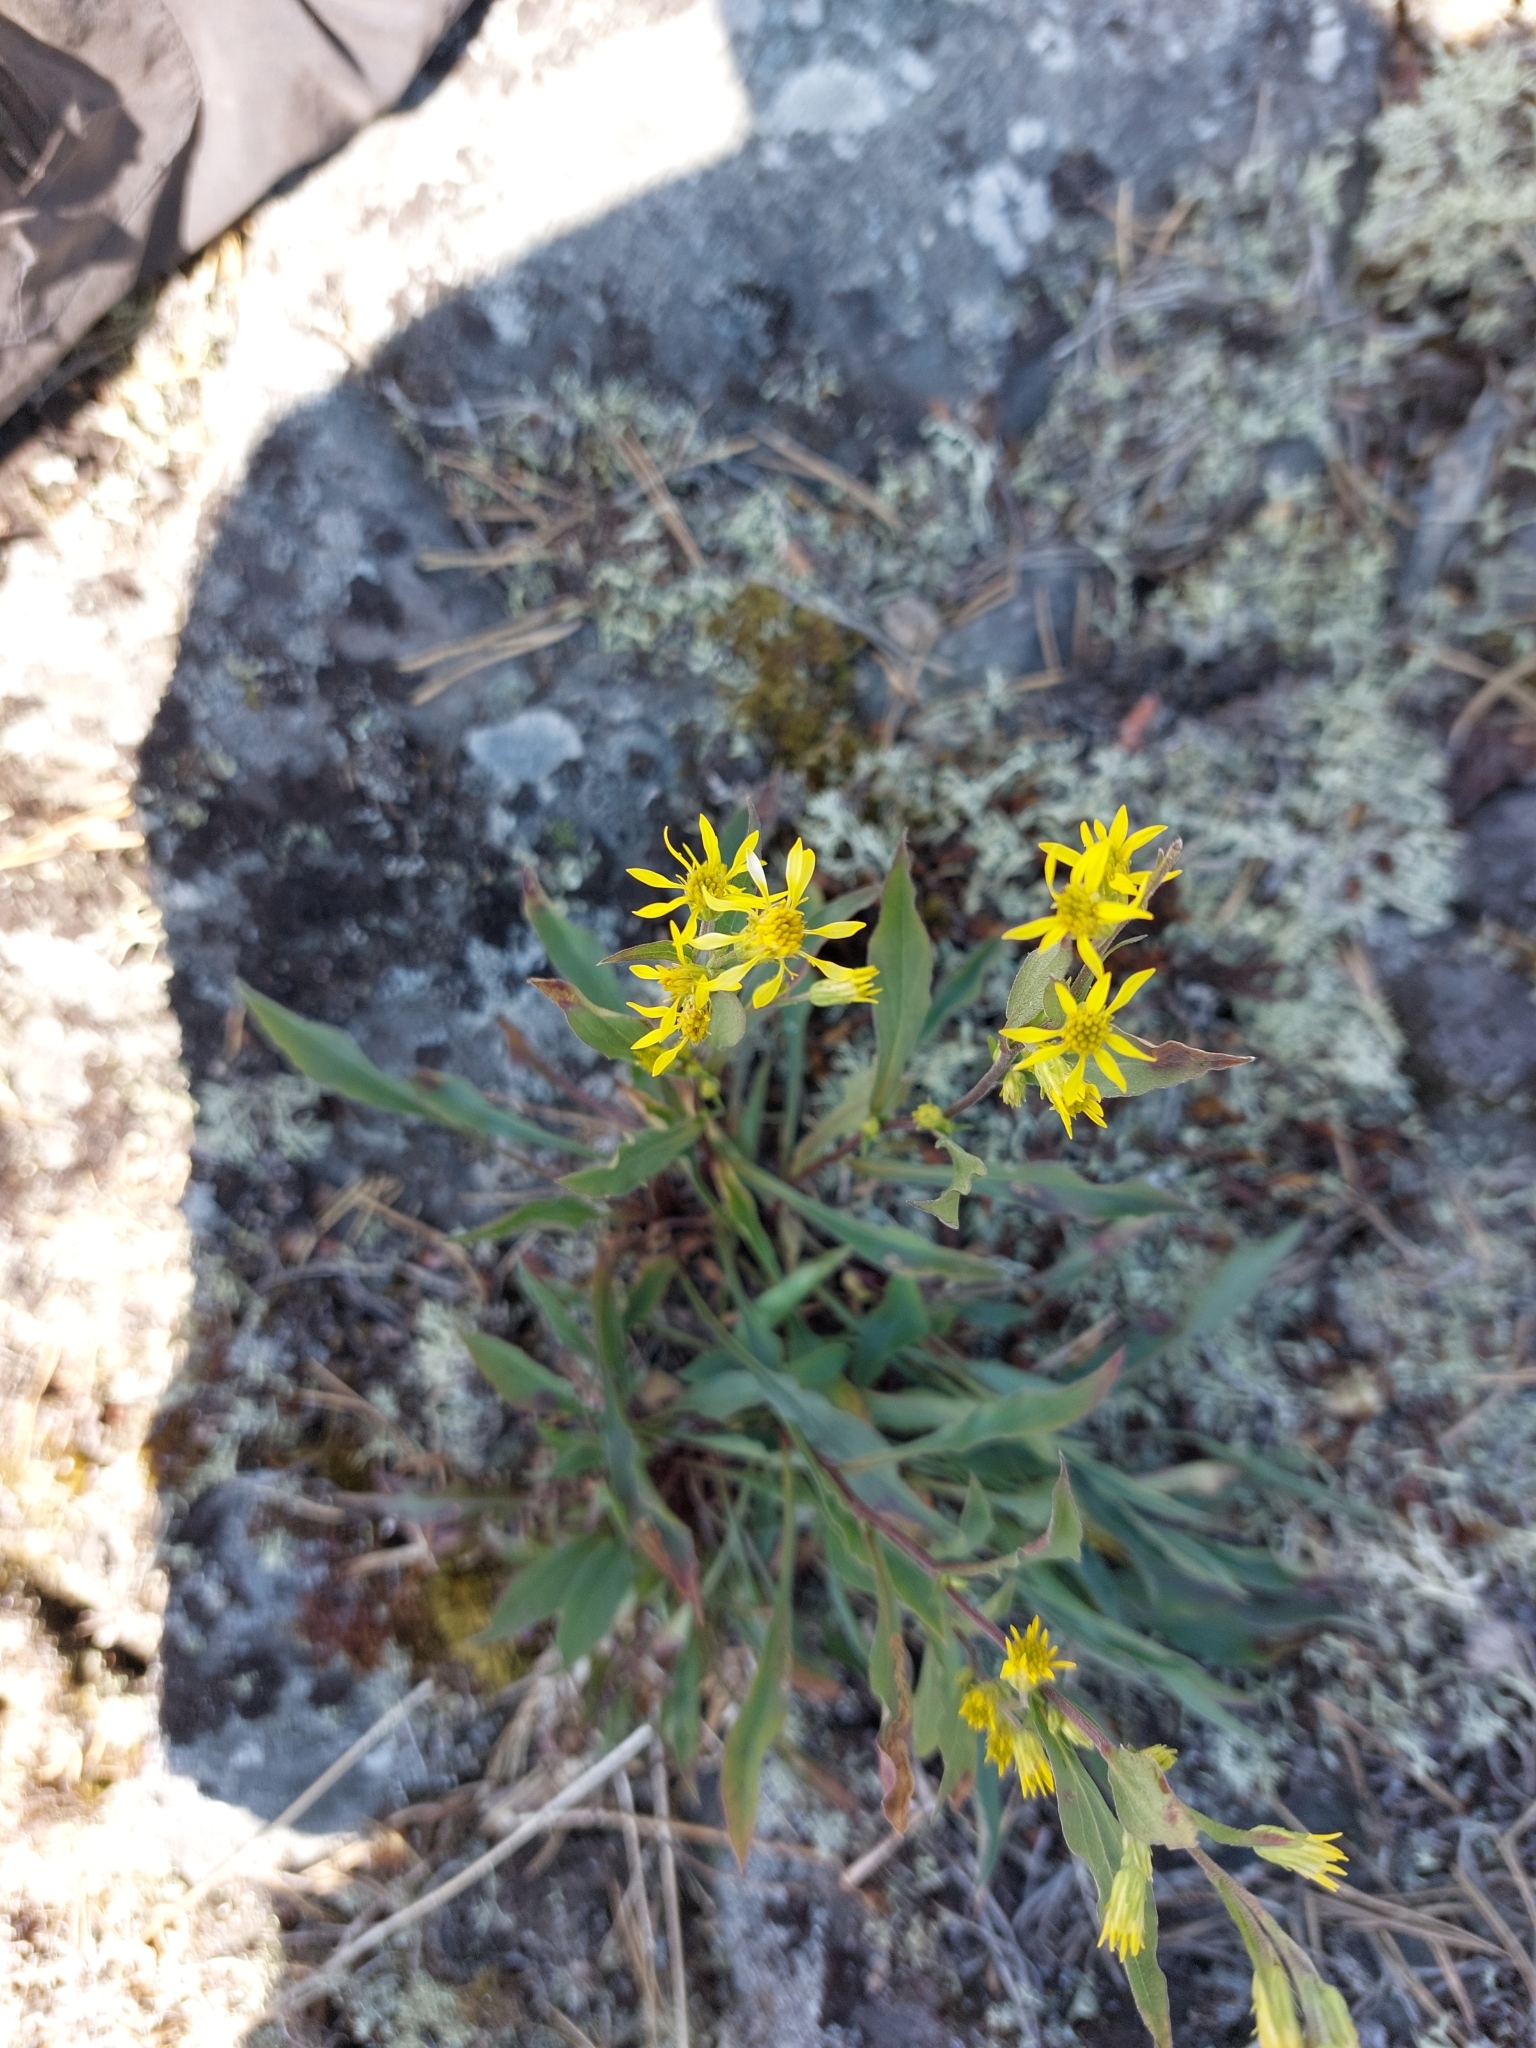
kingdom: Plantae
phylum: Tracheophyta
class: Magnoliopsida
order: Asterales
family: Asteraceae
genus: Solidago
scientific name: Solidago virgaurea
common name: Goldenrod
